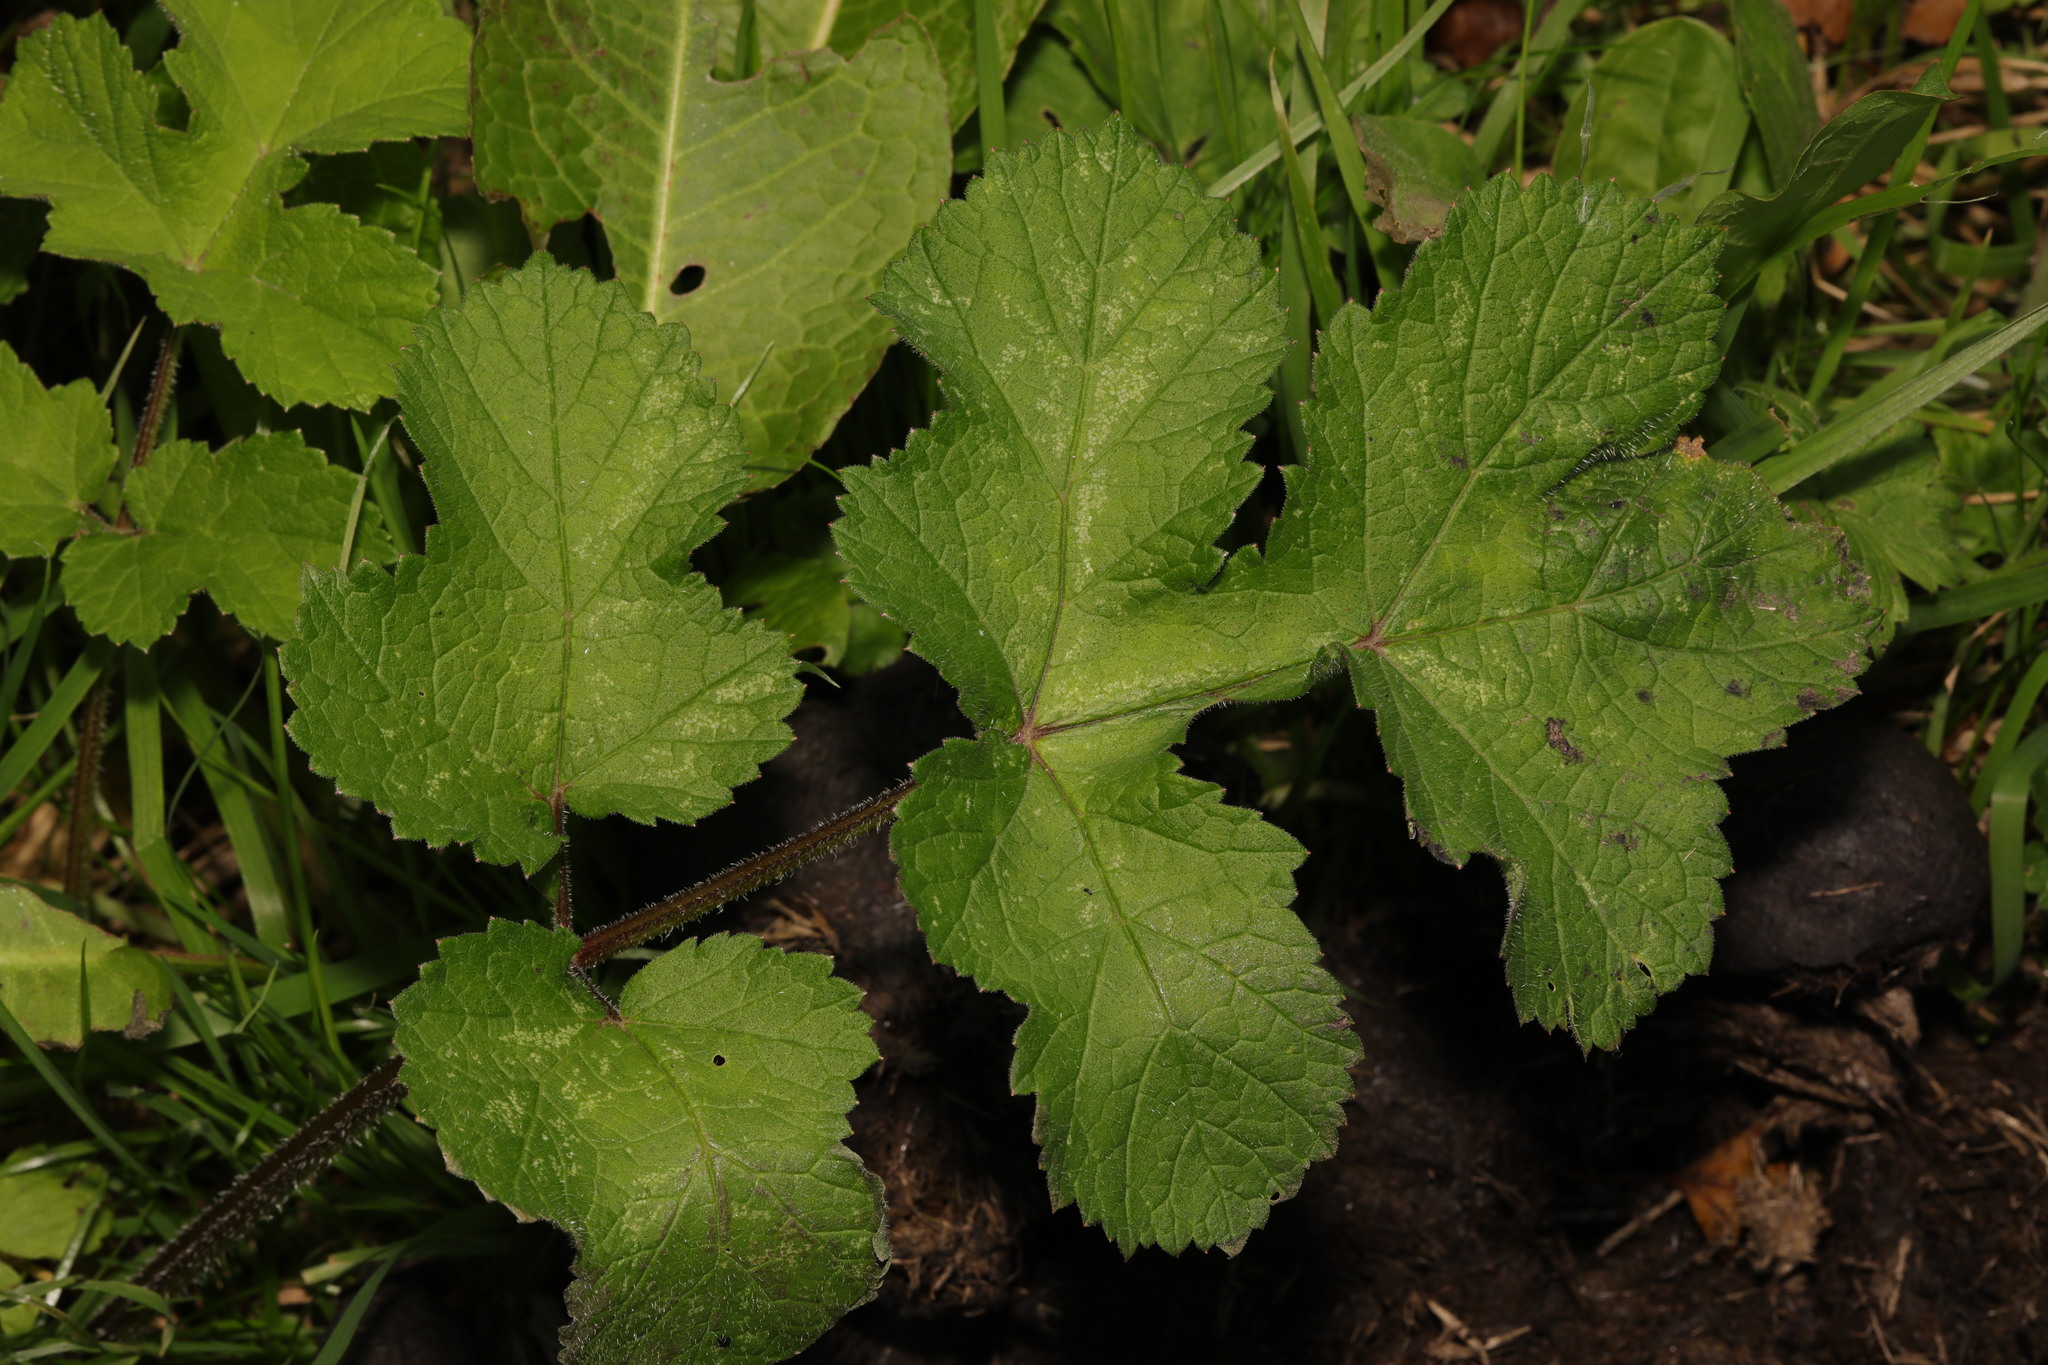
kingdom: Plantae
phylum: Tracheophyta
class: Magnoliopsida
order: Apiales
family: Apiaceae
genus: Heracleum
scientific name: Heracleum sphondylium
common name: Hogweed
